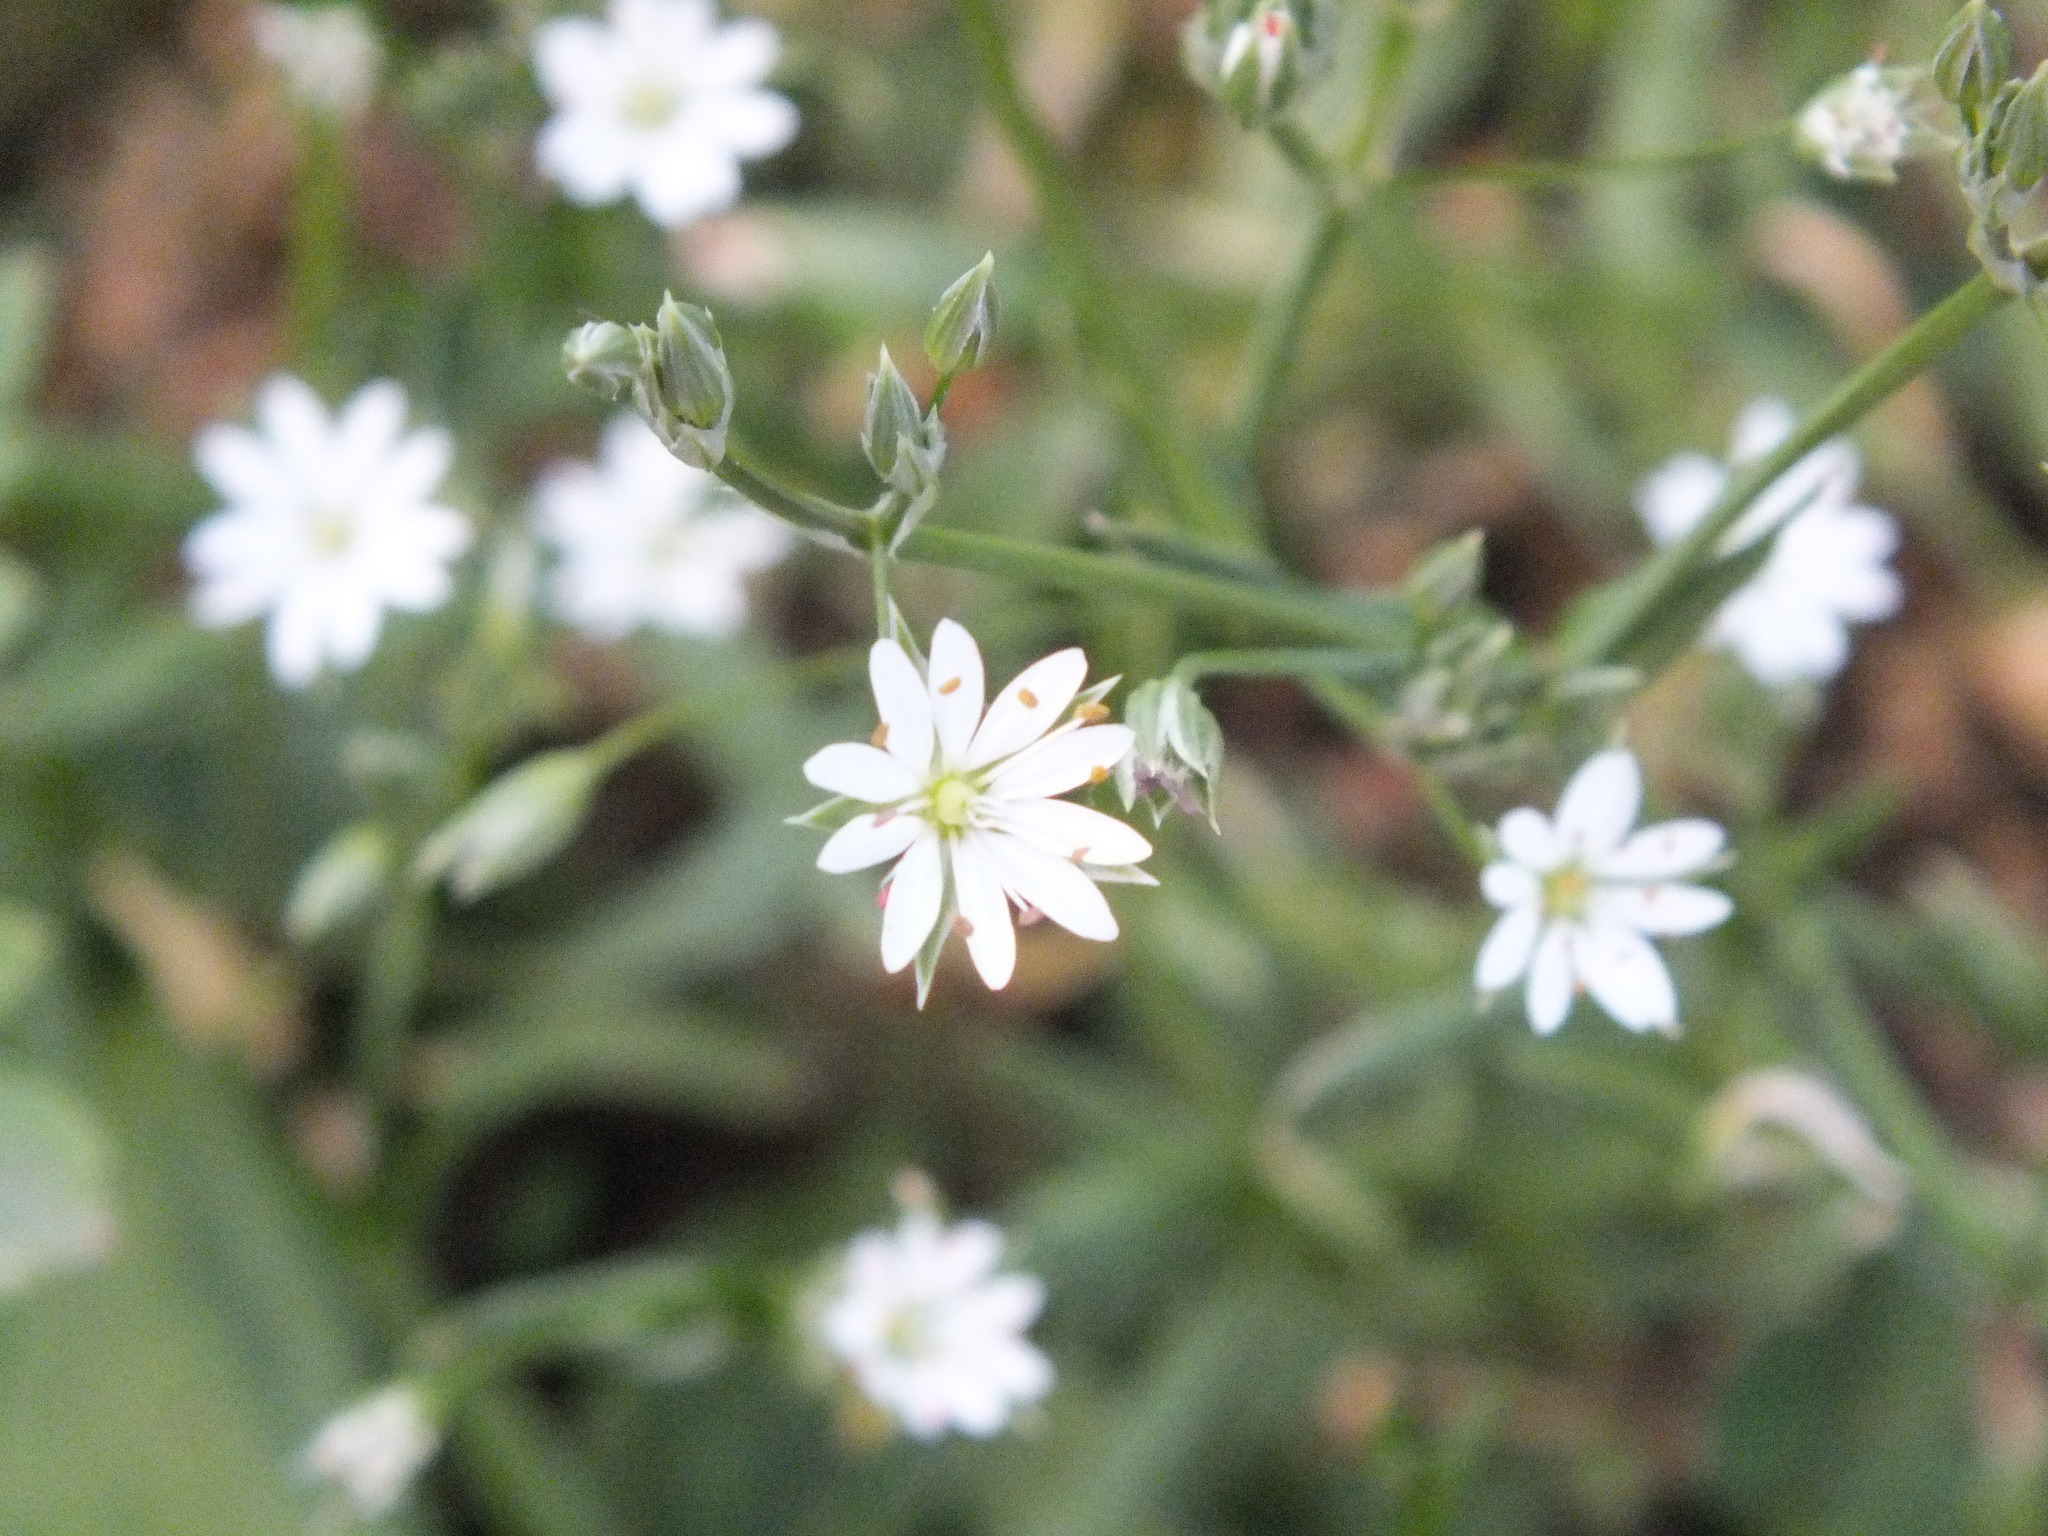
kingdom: Plantae
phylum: Tracheophyta
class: Magnoliopsida
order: Caryophyllales
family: Caryophyllaceae
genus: Stellaria
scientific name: Stellaria graminea
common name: Grass-like starwort
